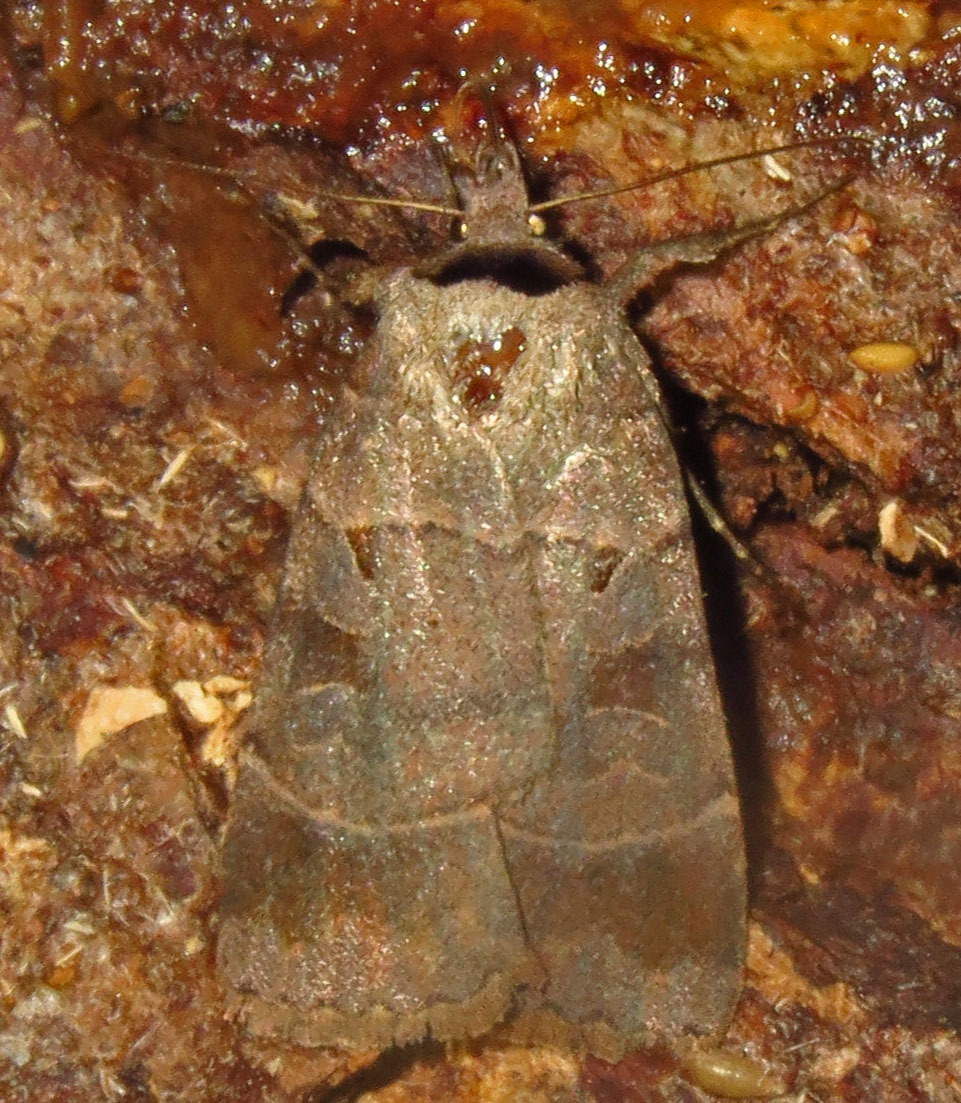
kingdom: Animalia
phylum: Arthropoda
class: Insecta
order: Lepidoptera
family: Noctuidae
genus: Agnorisma
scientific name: Agnorisma badinodis
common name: Pale-banded dart
